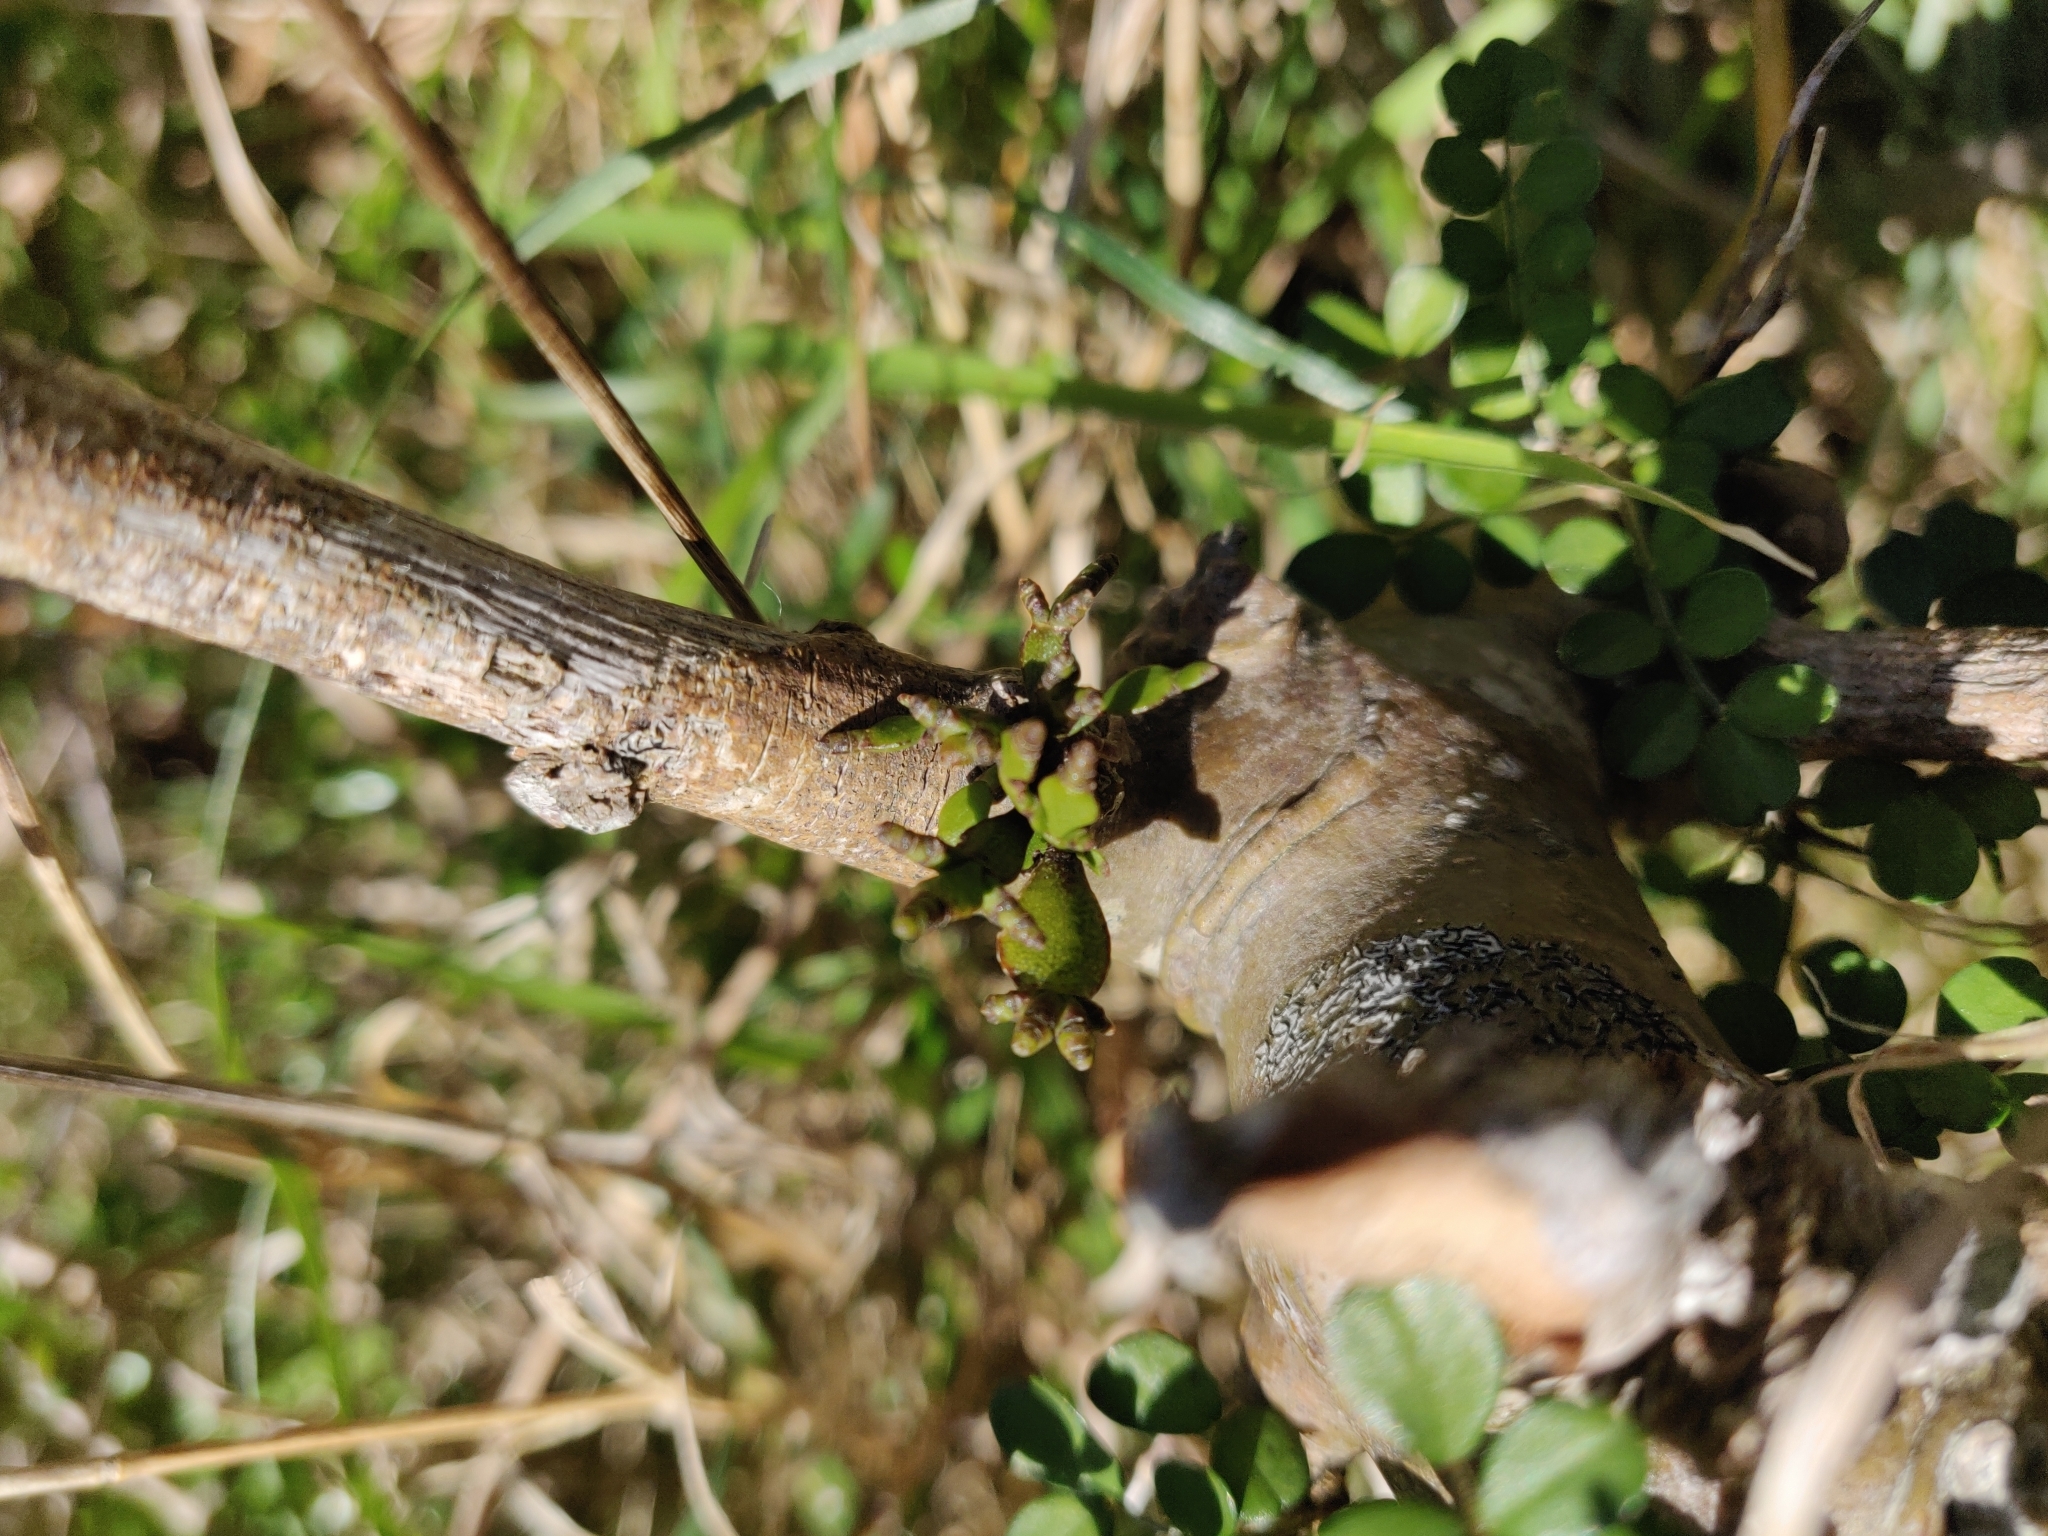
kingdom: Plantae
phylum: Tracheophyta
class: Magnoliopsida
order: Santalales
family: Viscaceae
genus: Korthalsella
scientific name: Korthalsella lindsayi
